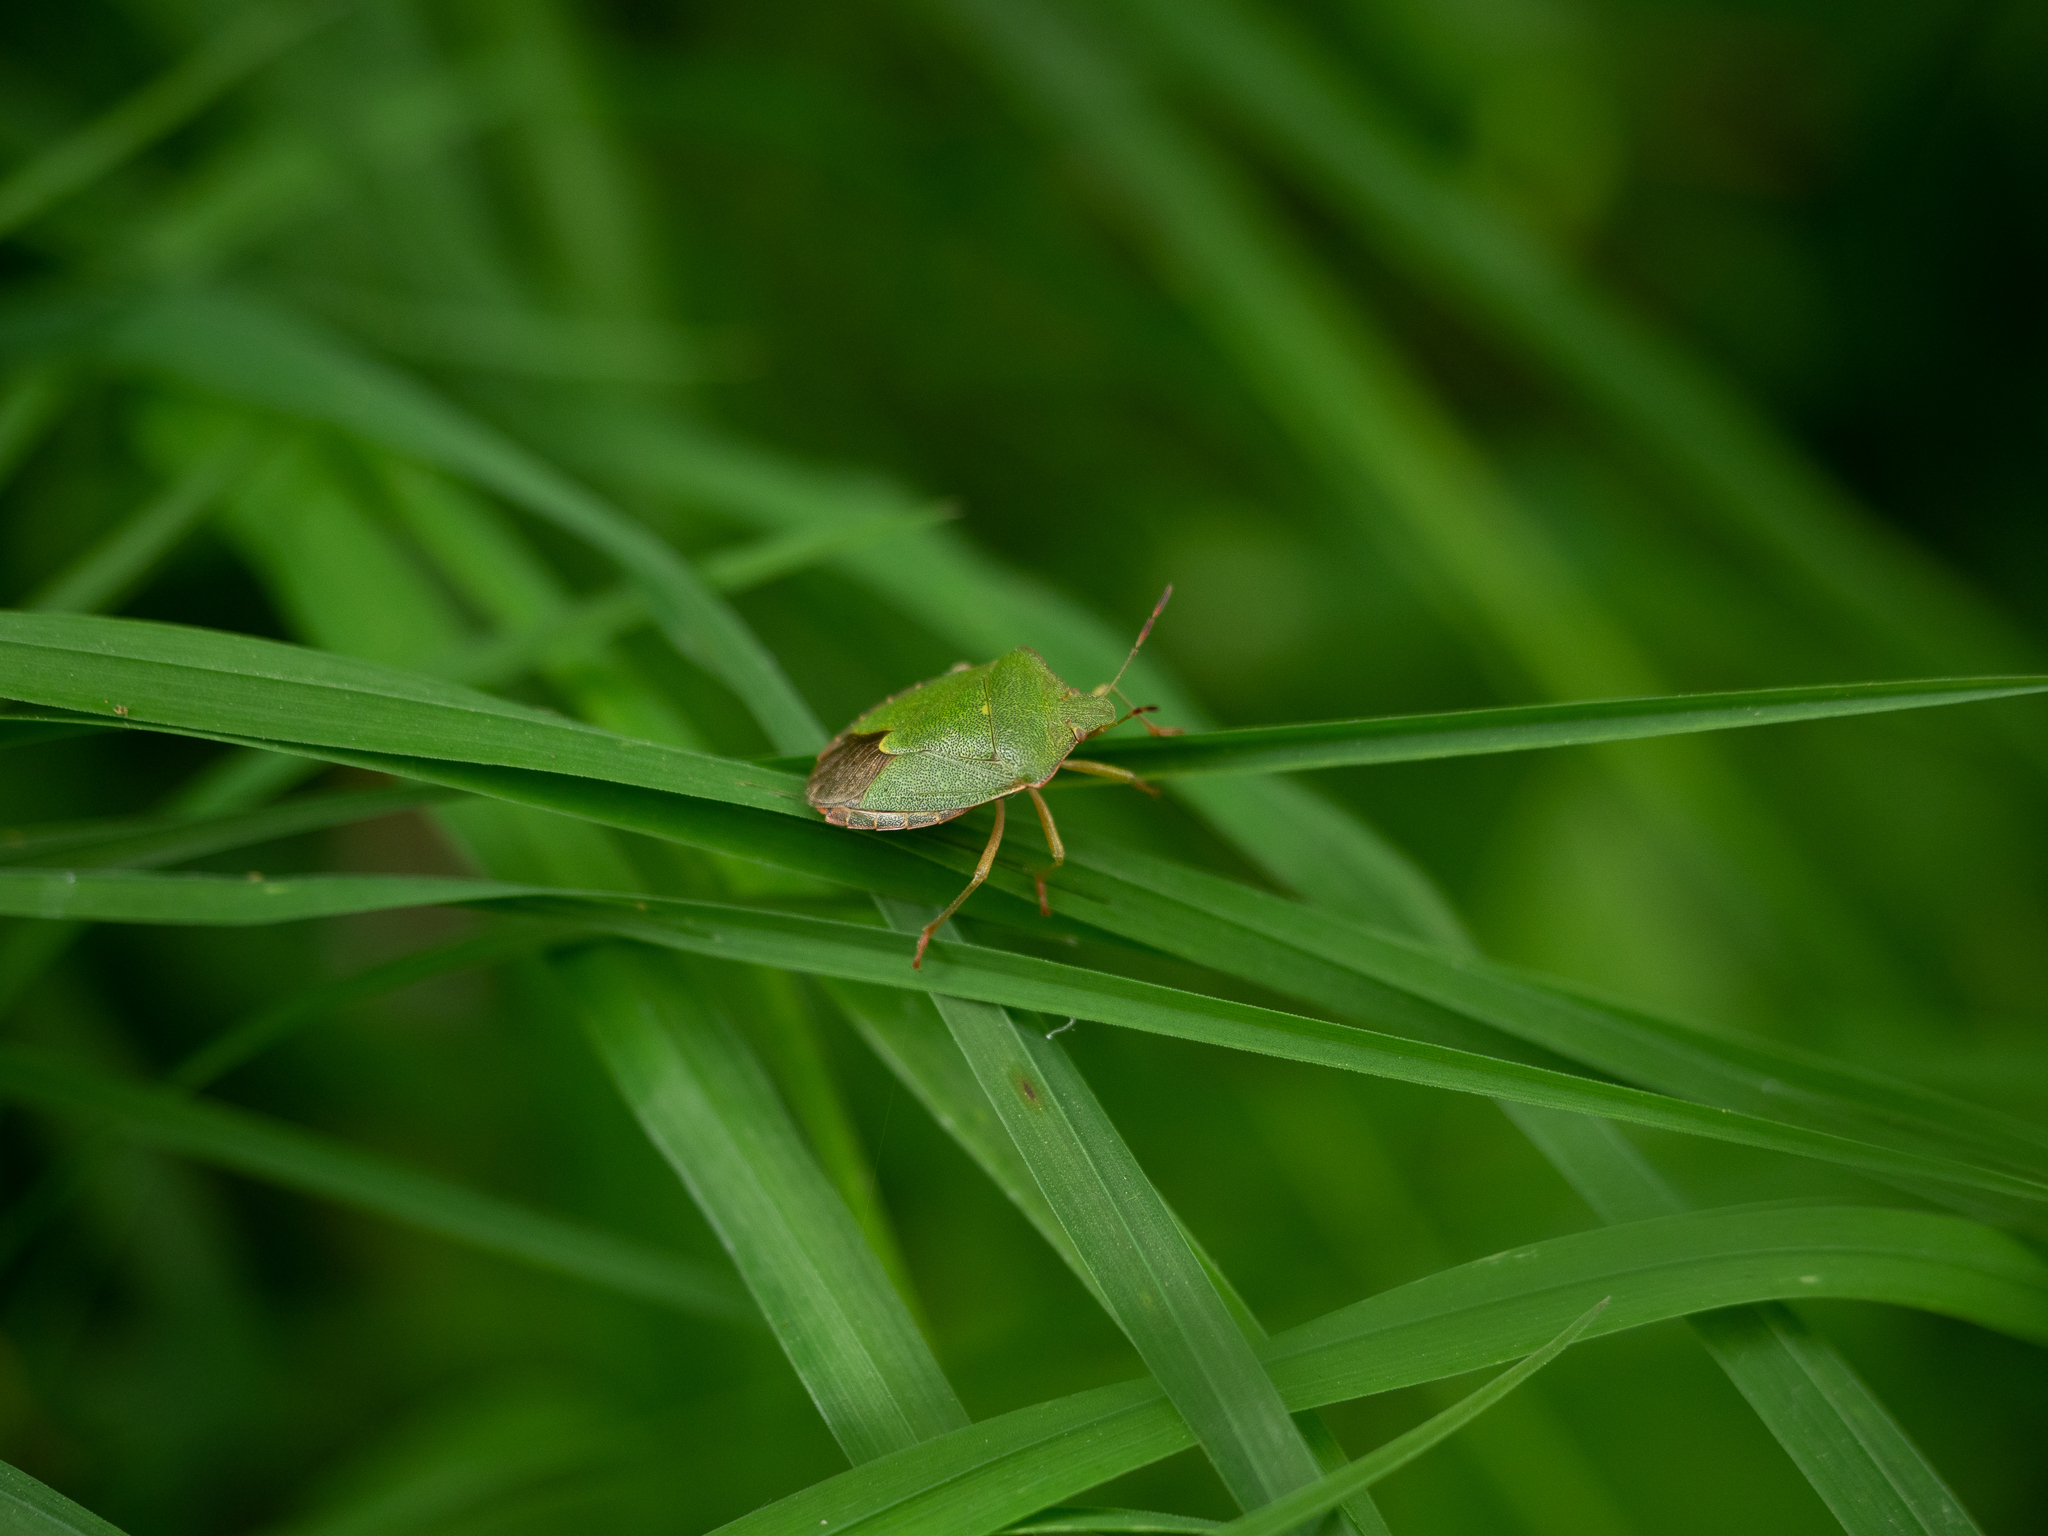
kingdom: Animalia
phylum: Arthropoda
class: Insecta
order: Hemiptera
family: Pentatomidae
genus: Palomena
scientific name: Palomena prasina
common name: Green shieldbug
